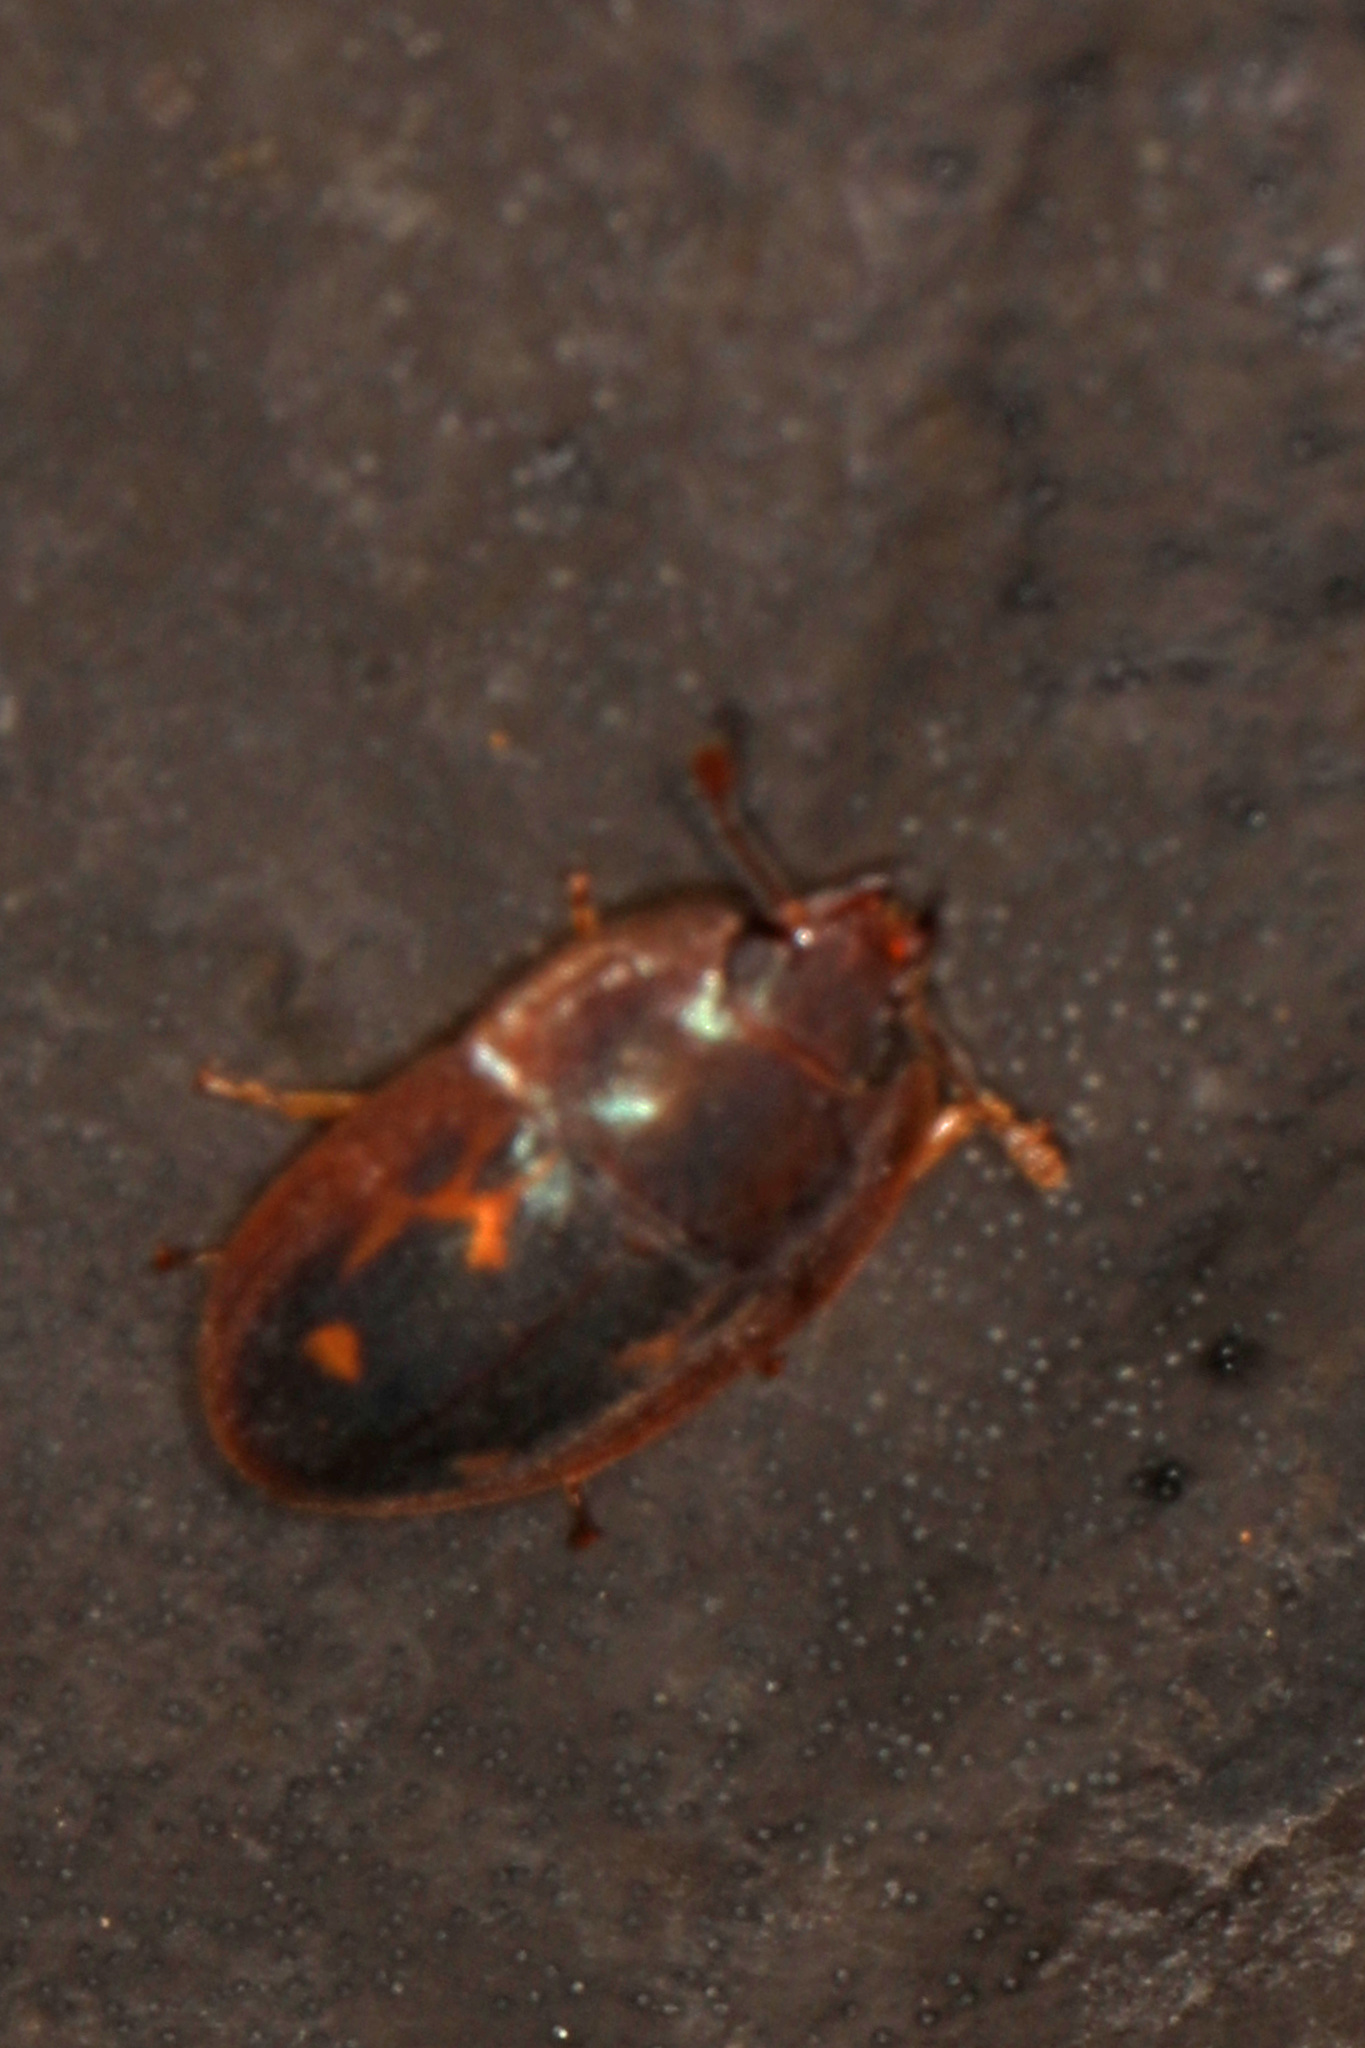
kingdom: Animalia
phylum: Arthropoda
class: Insecta
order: Coleoptera
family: Nitidulidae
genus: Prometopia
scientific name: Prometopia sexmaculata
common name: Six-spotted sap-feeding beetle
